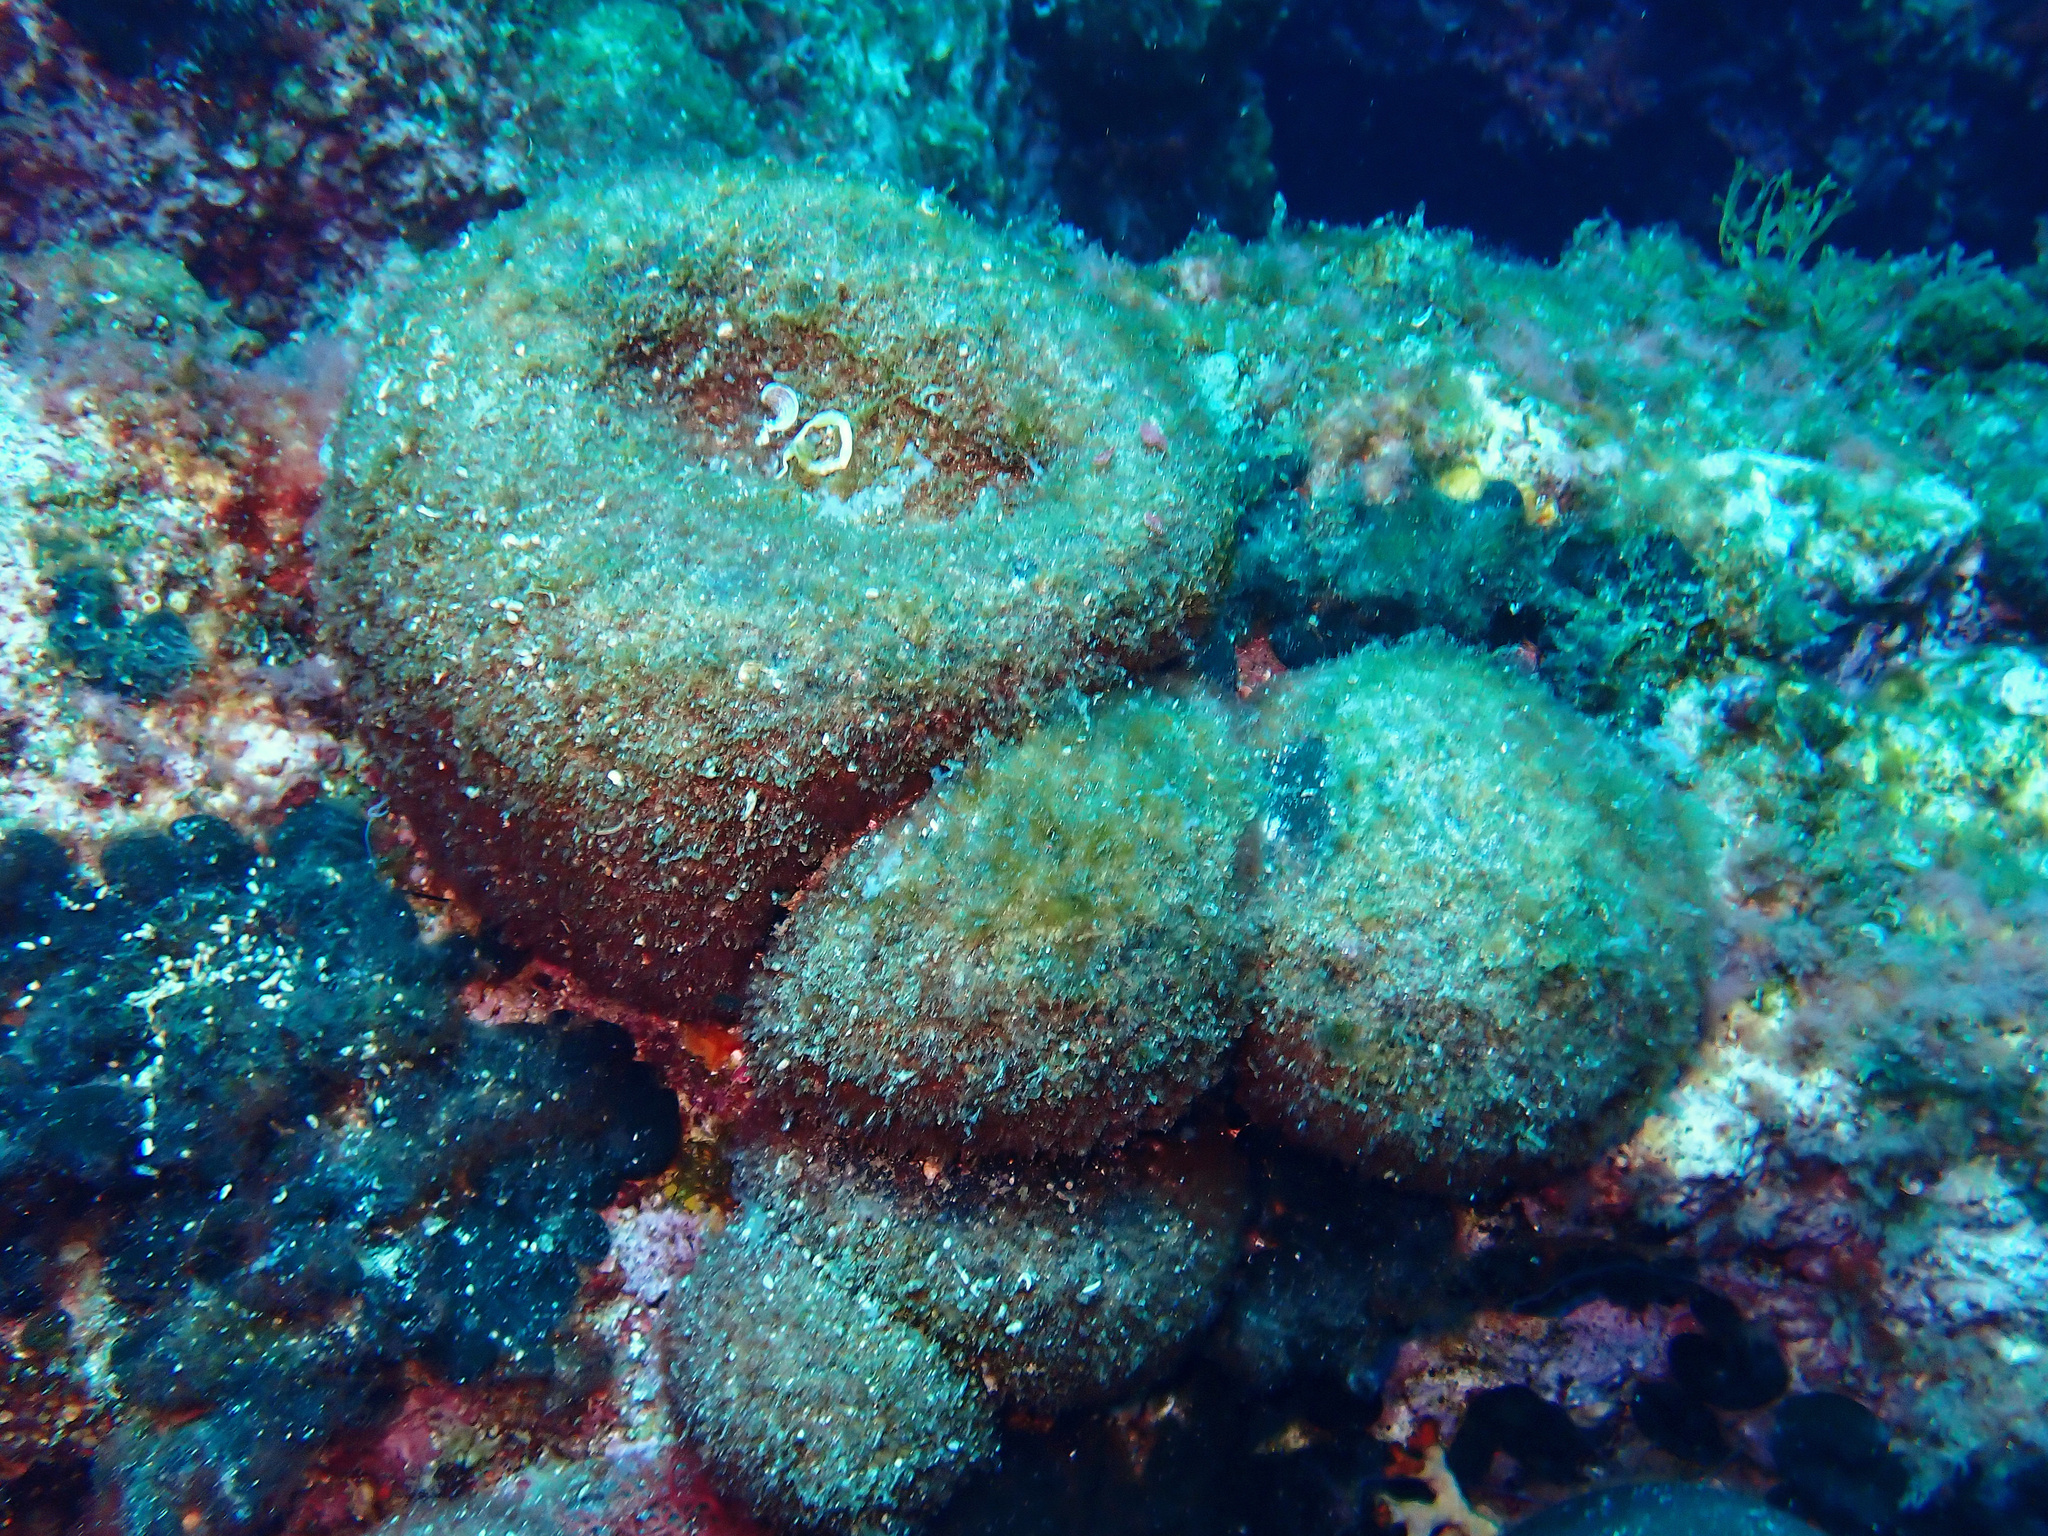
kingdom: Plantae
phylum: Chlorophyta
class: Ulvophyceae
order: Bryopsidales
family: Codiaceae
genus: Codium
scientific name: Codium bursa
